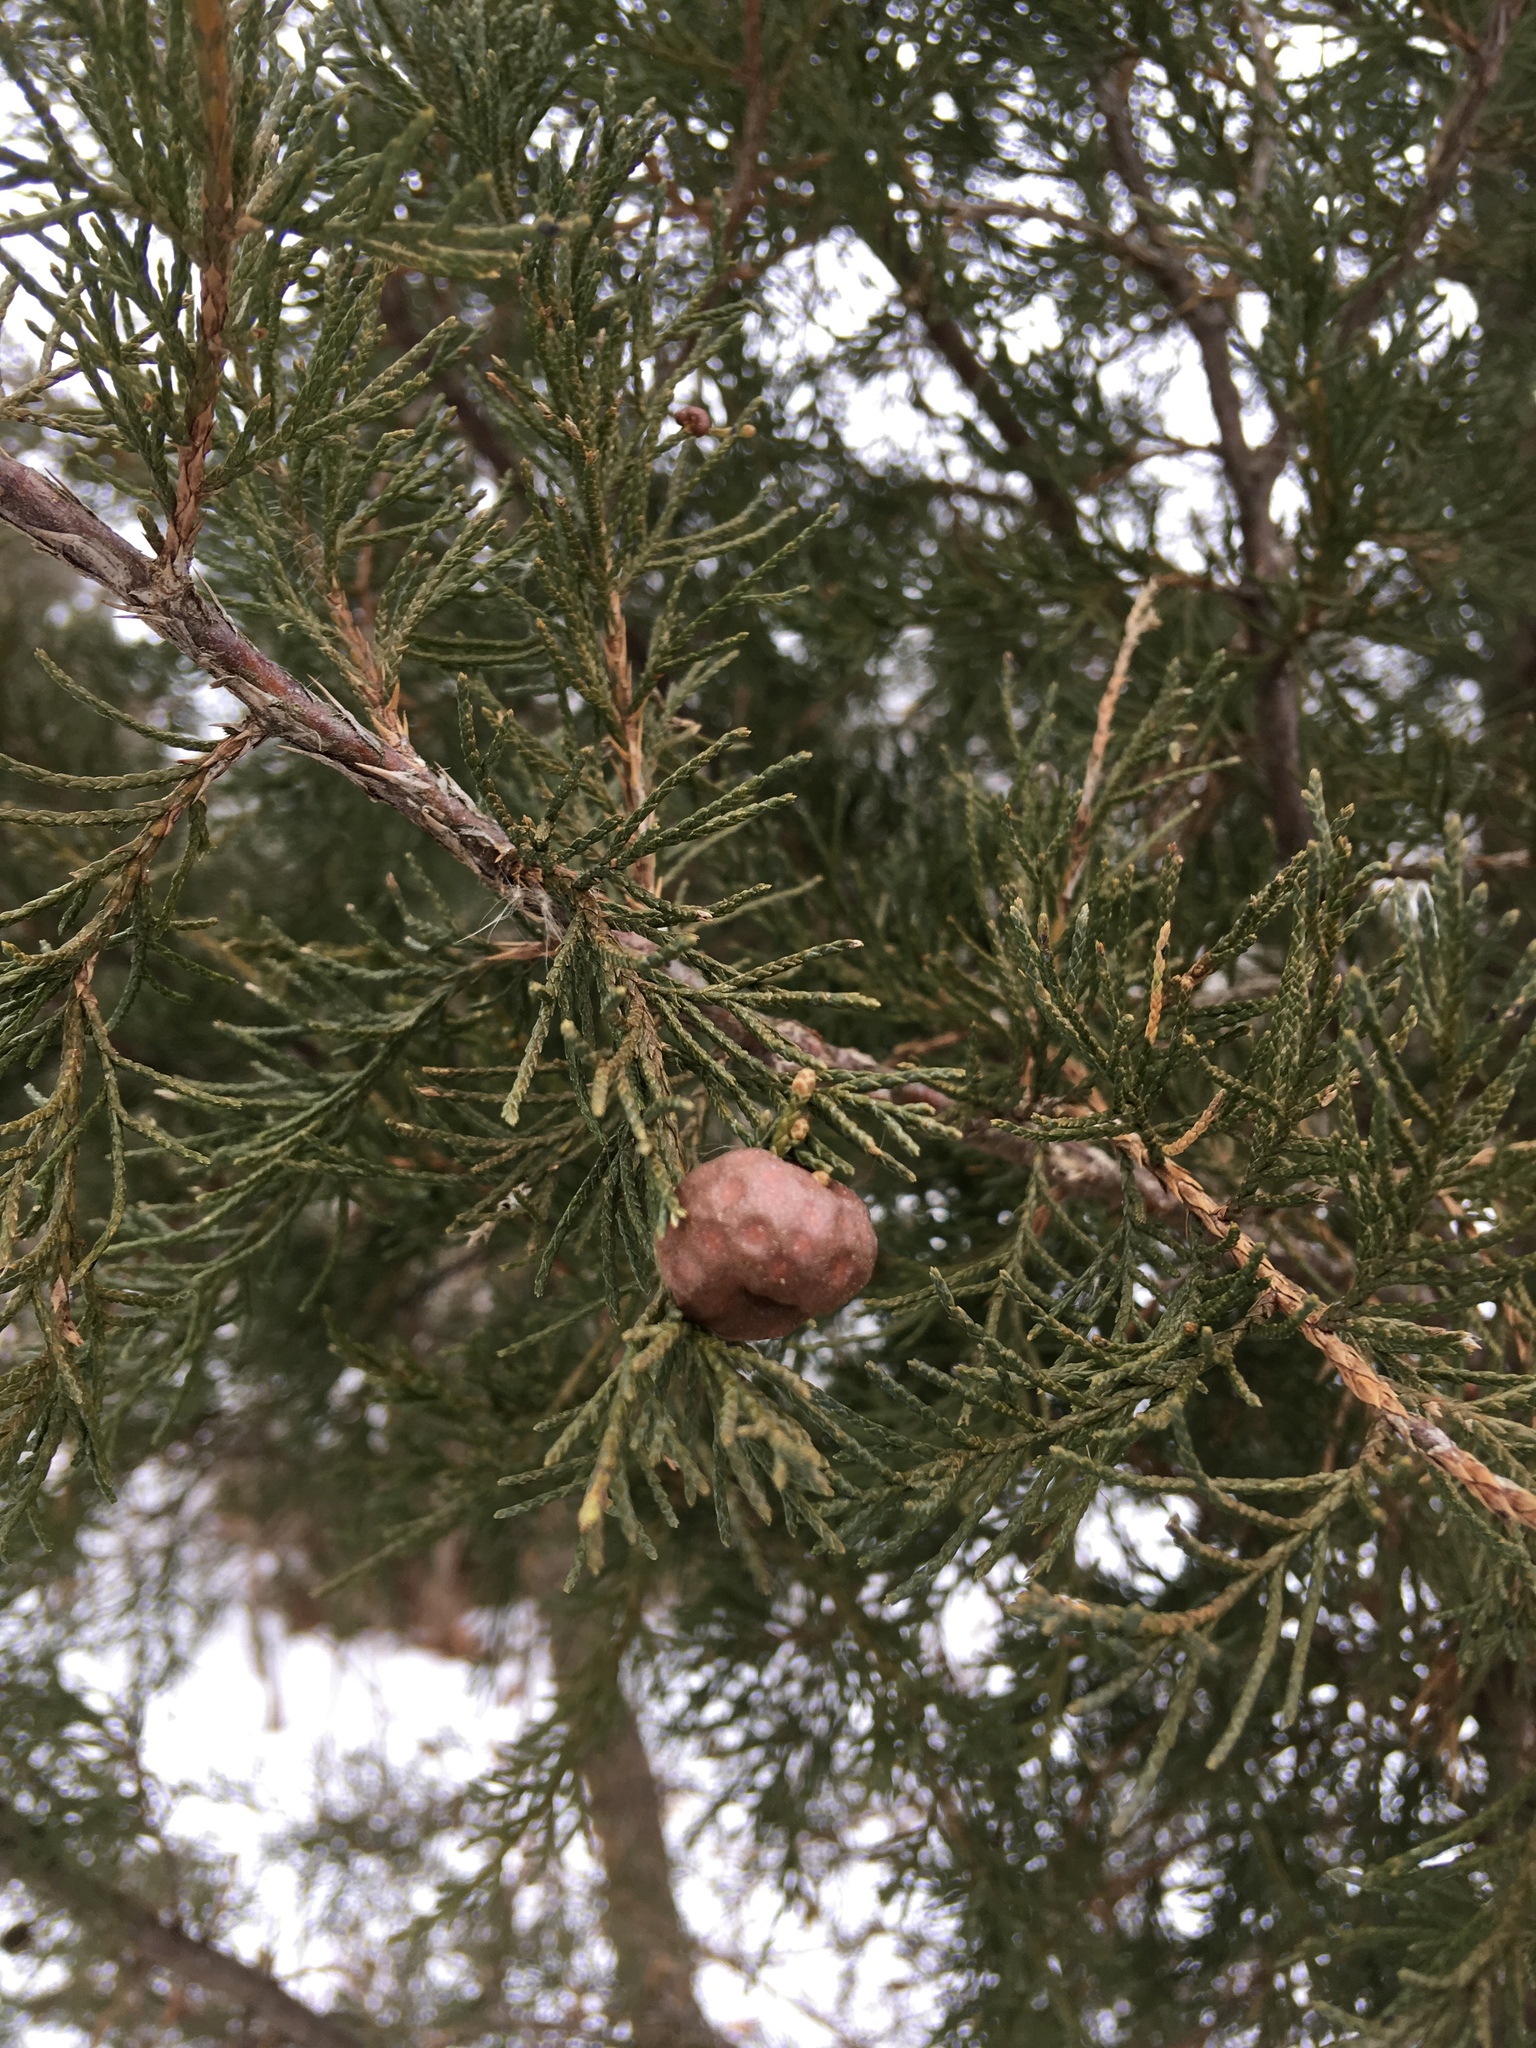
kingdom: Fungi
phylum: Basidiomycota
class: Pucciniomycetes
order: Pucciniales
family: Gymnosporangiaceae
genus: Gymnosporangium
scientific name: Gymnosporangium juniperi-virginianae
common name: Juniper-apple rust
